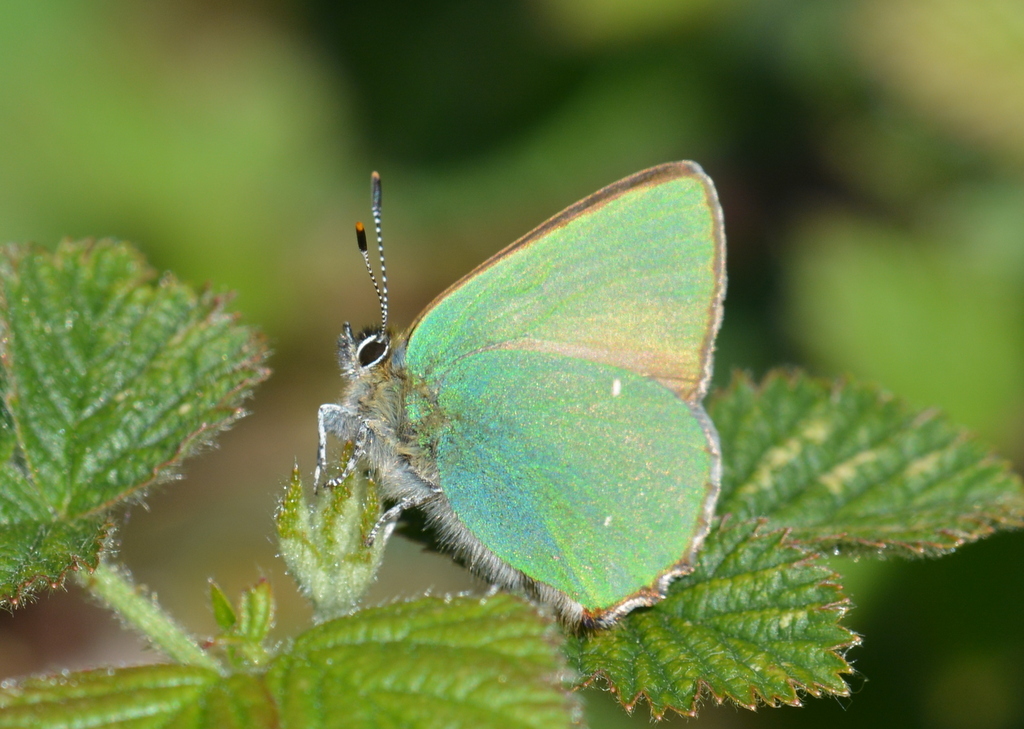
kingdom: Animalia
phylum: Arthropoda
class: Insecta
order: Lepidoptera
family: Lycaenidae
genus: Callophrys
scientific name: Callophrys rubi
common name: Green hairstreak
